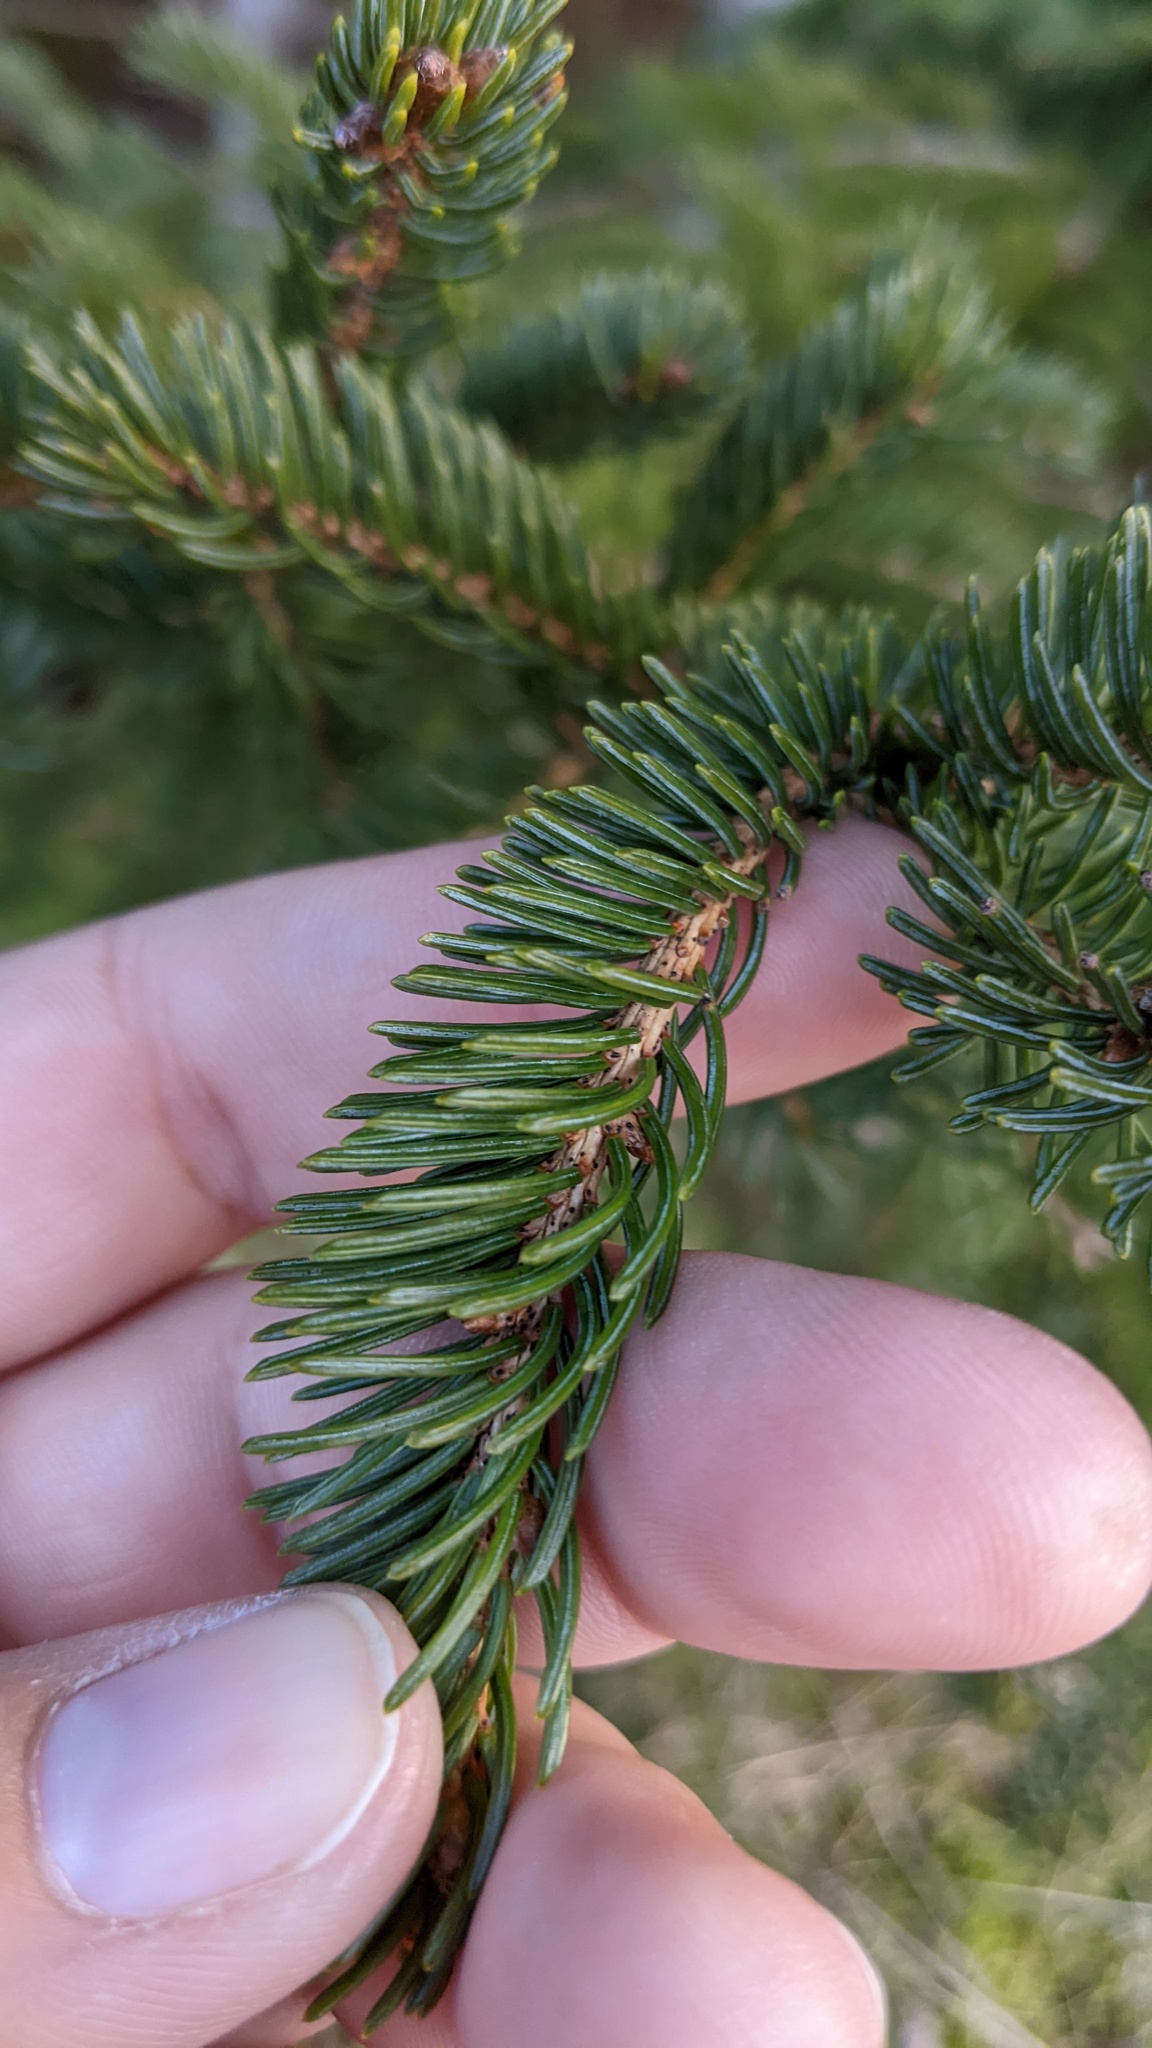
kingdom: Plantae
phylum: Tracheophyta
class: Pinopsida
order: Pinales
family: Pinaceae
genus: Picea
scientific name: Picea glauca
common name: White spruce
